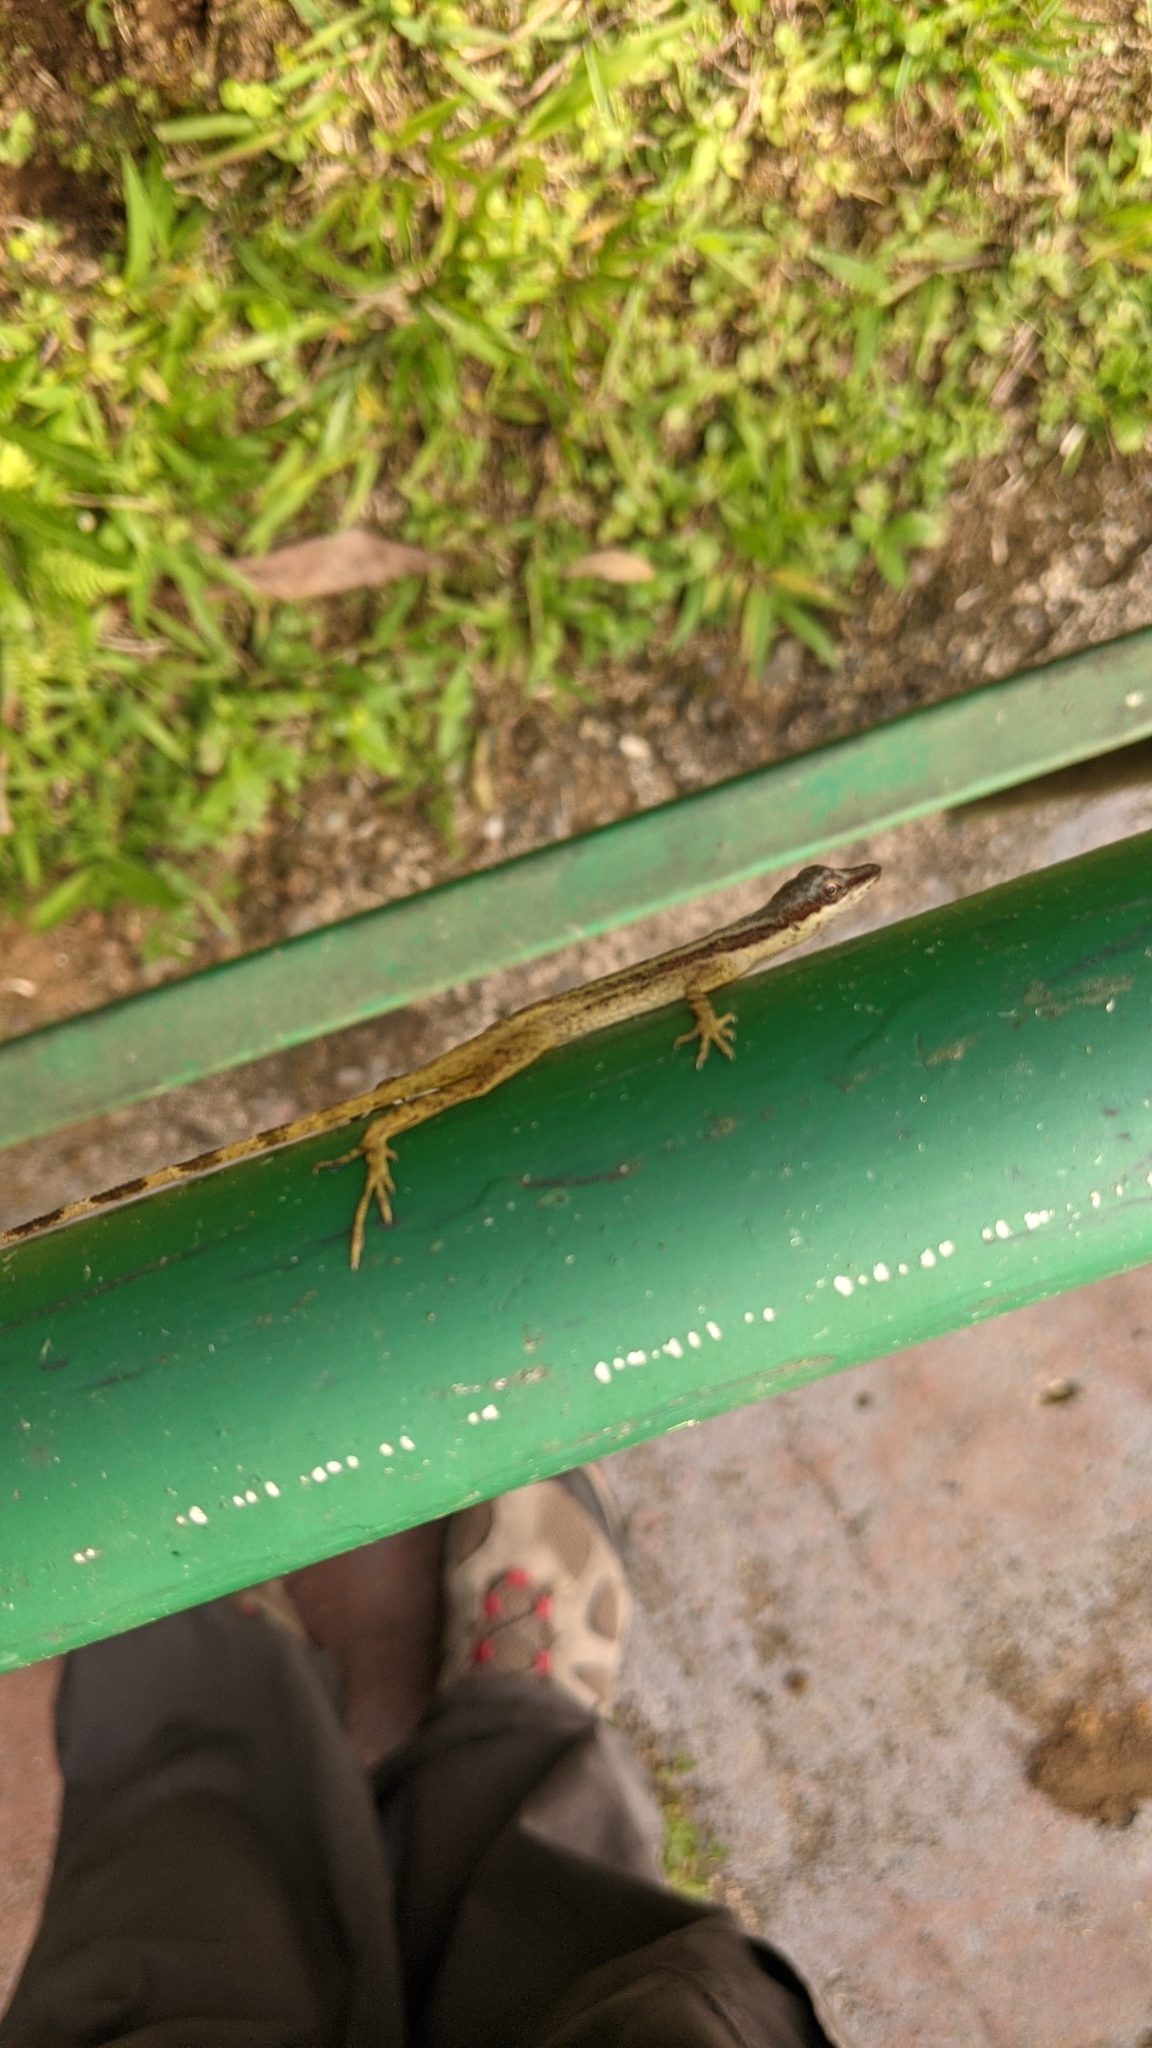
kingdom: Animalia
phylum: Chordata
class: Squamata
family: Dactyloidae
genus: Anolis
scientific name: Anolis limifrons
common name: Border anole
